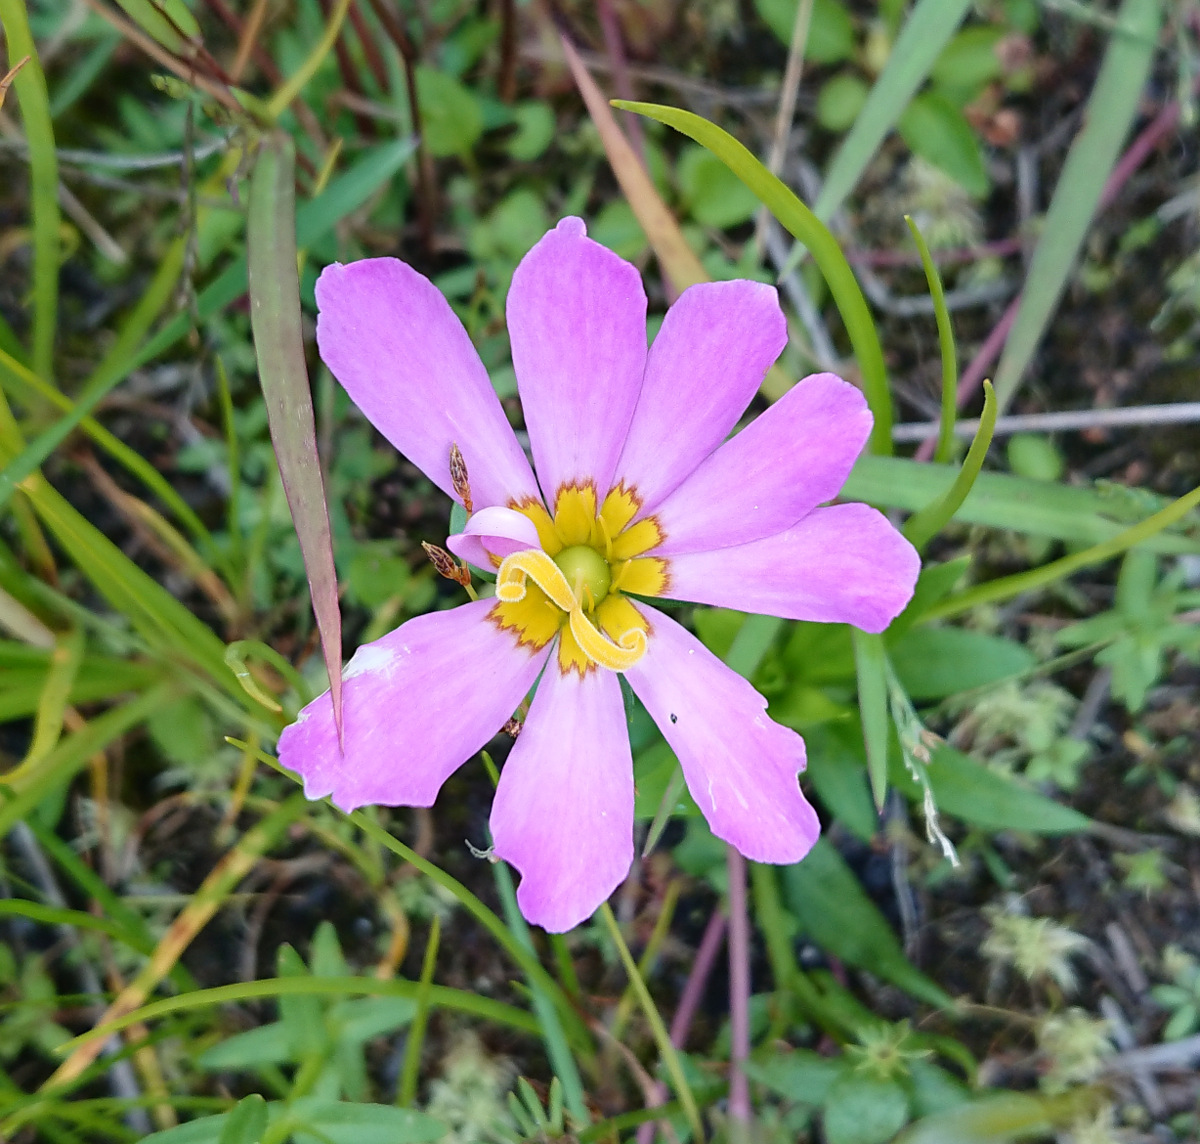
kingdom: Plantae
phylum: Tracheophyta
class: Magnoliopsida
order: Gentianales
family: Gentianaceae
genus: Sabatia
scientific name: Sabatia kennedyana
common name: Plymouth gentian
